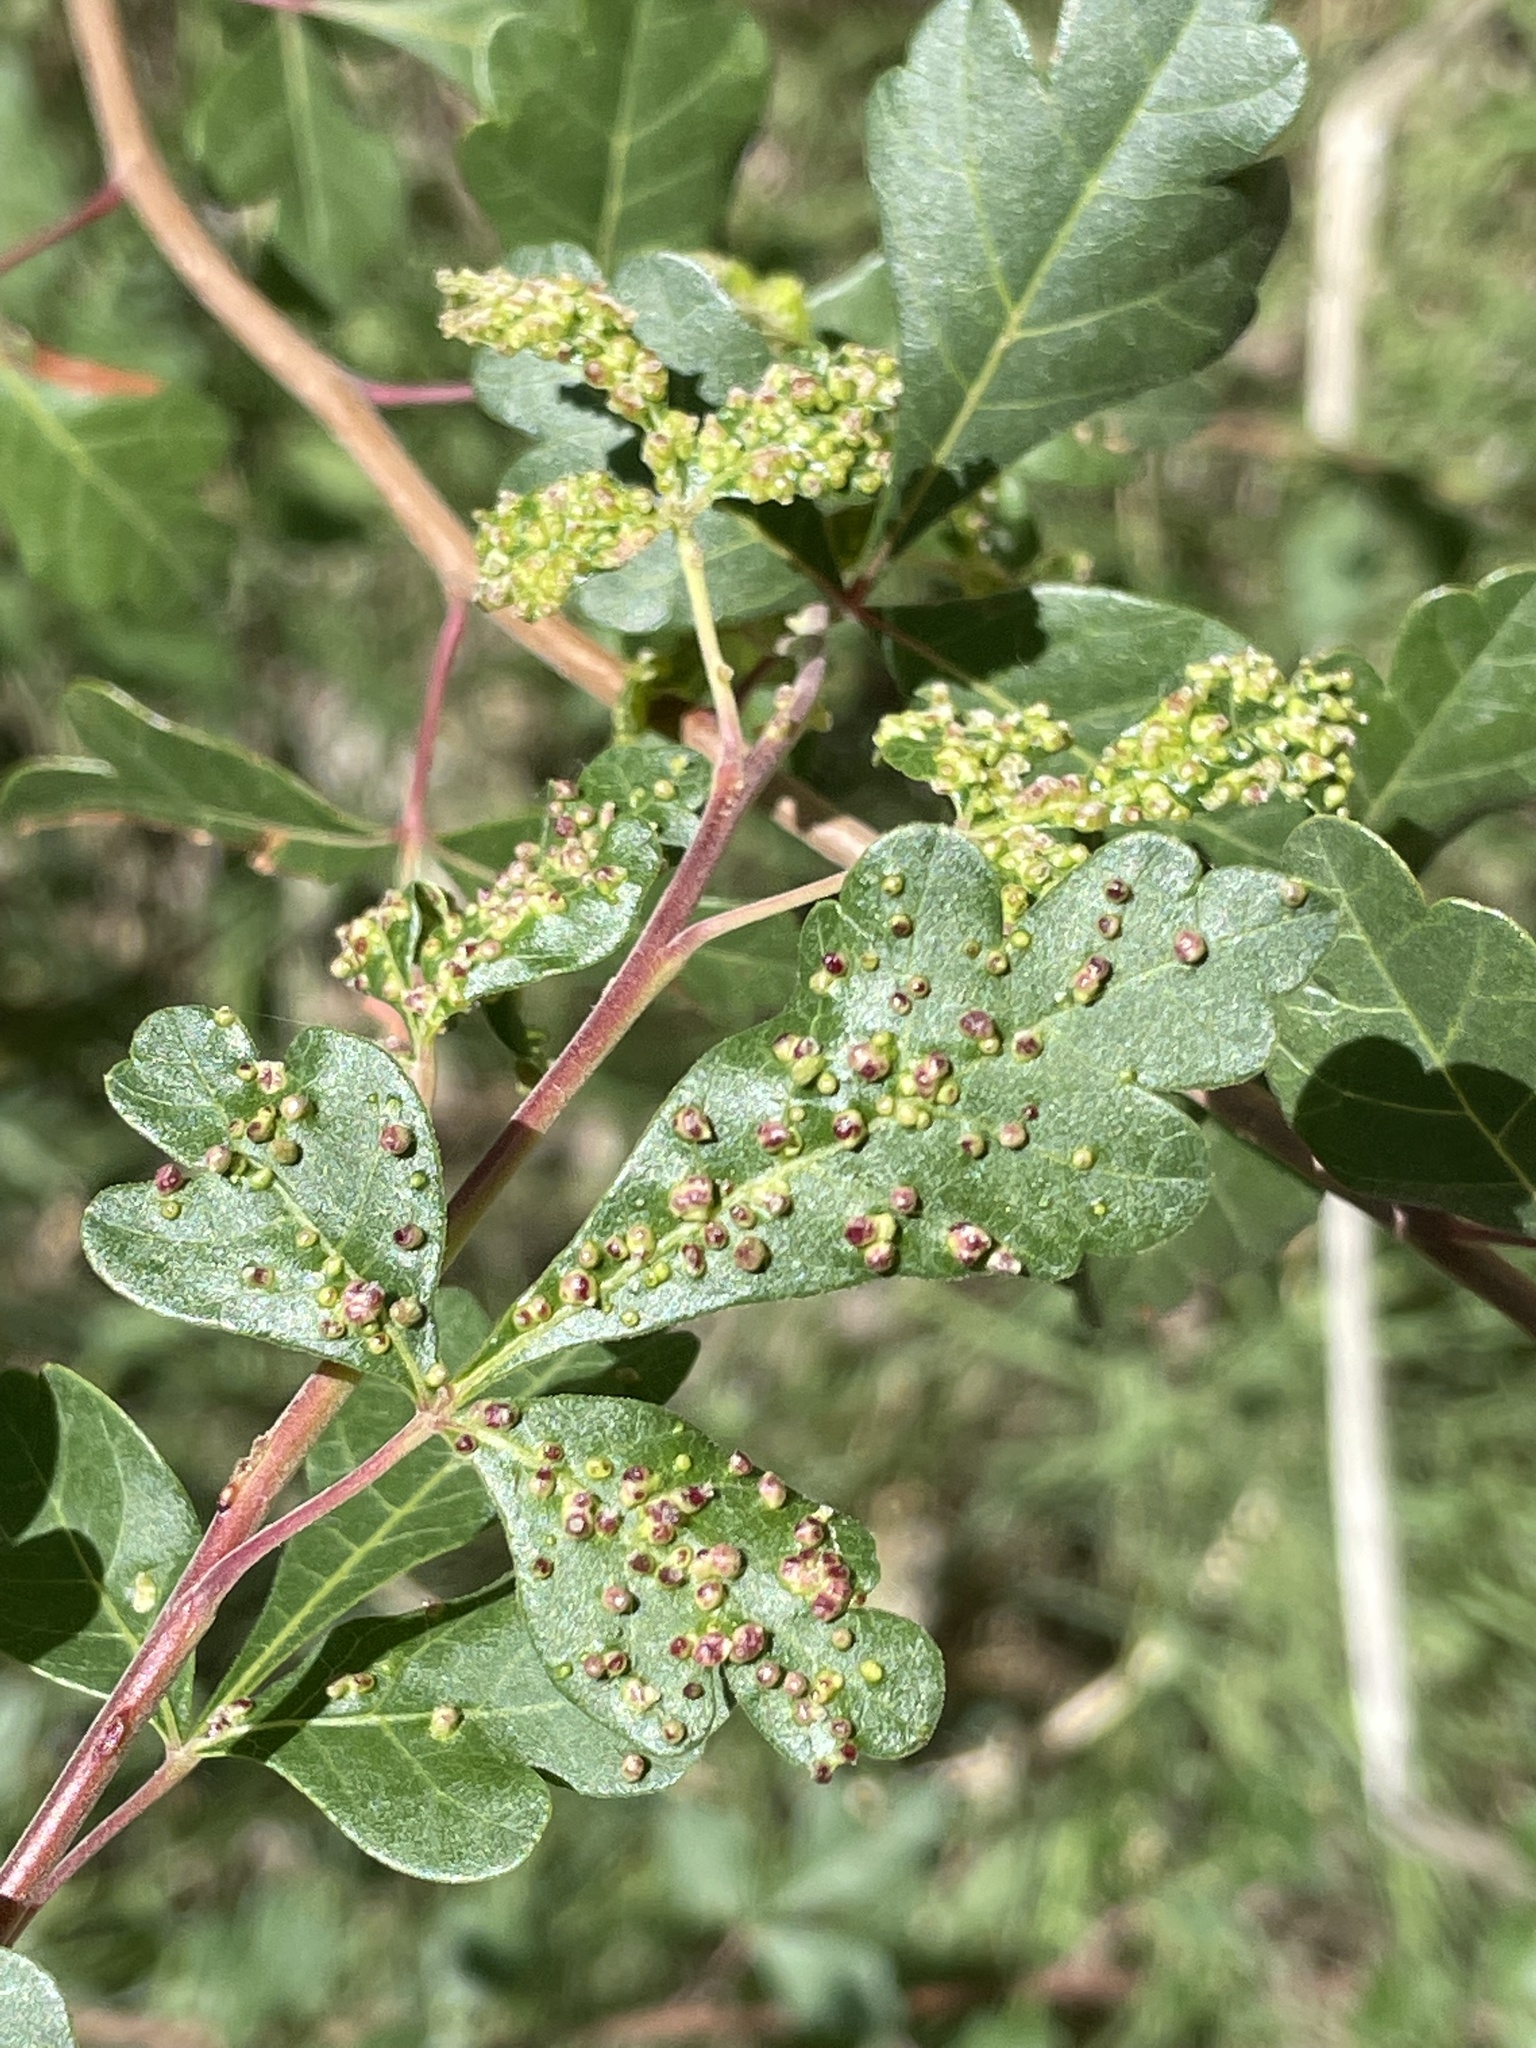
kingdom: Plantae
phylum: Tracheophyta
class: Magnoliopsida
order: Sapindales
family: Anacardiaceae
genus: Rhus
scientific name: Rhus trilobata
